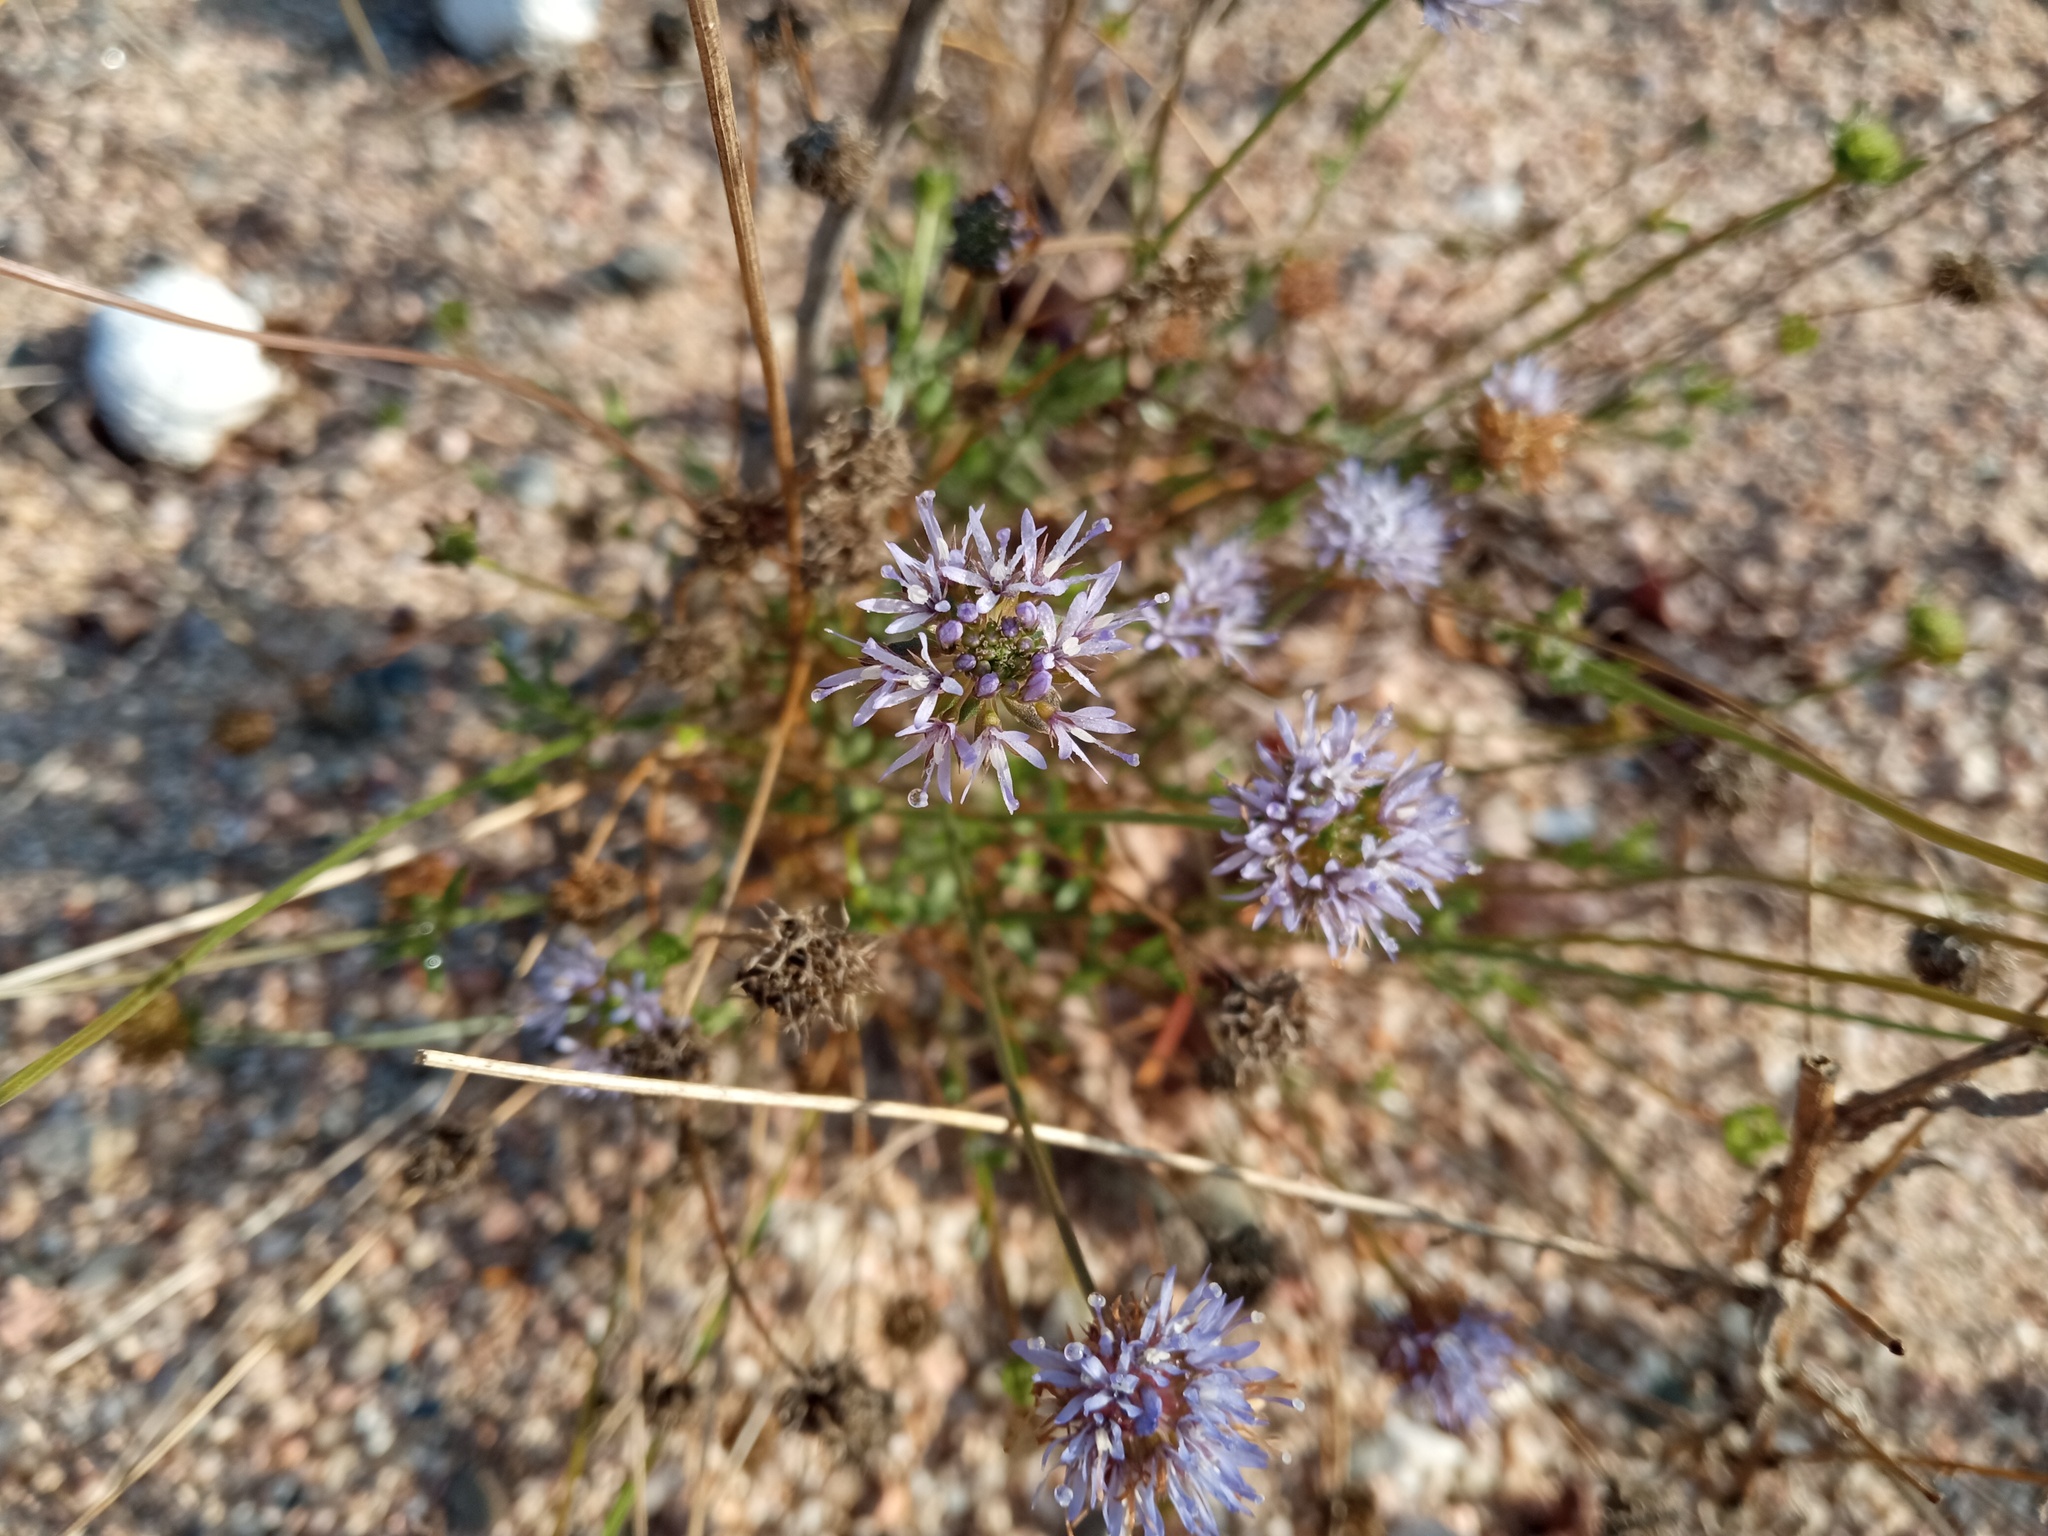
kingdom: Plantae
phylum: Tracheophyta
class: Magnoliopsida
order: Asterales
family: Campanulaceae
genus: Jasione
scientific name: Jasione montana
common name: Sheep's-bit
